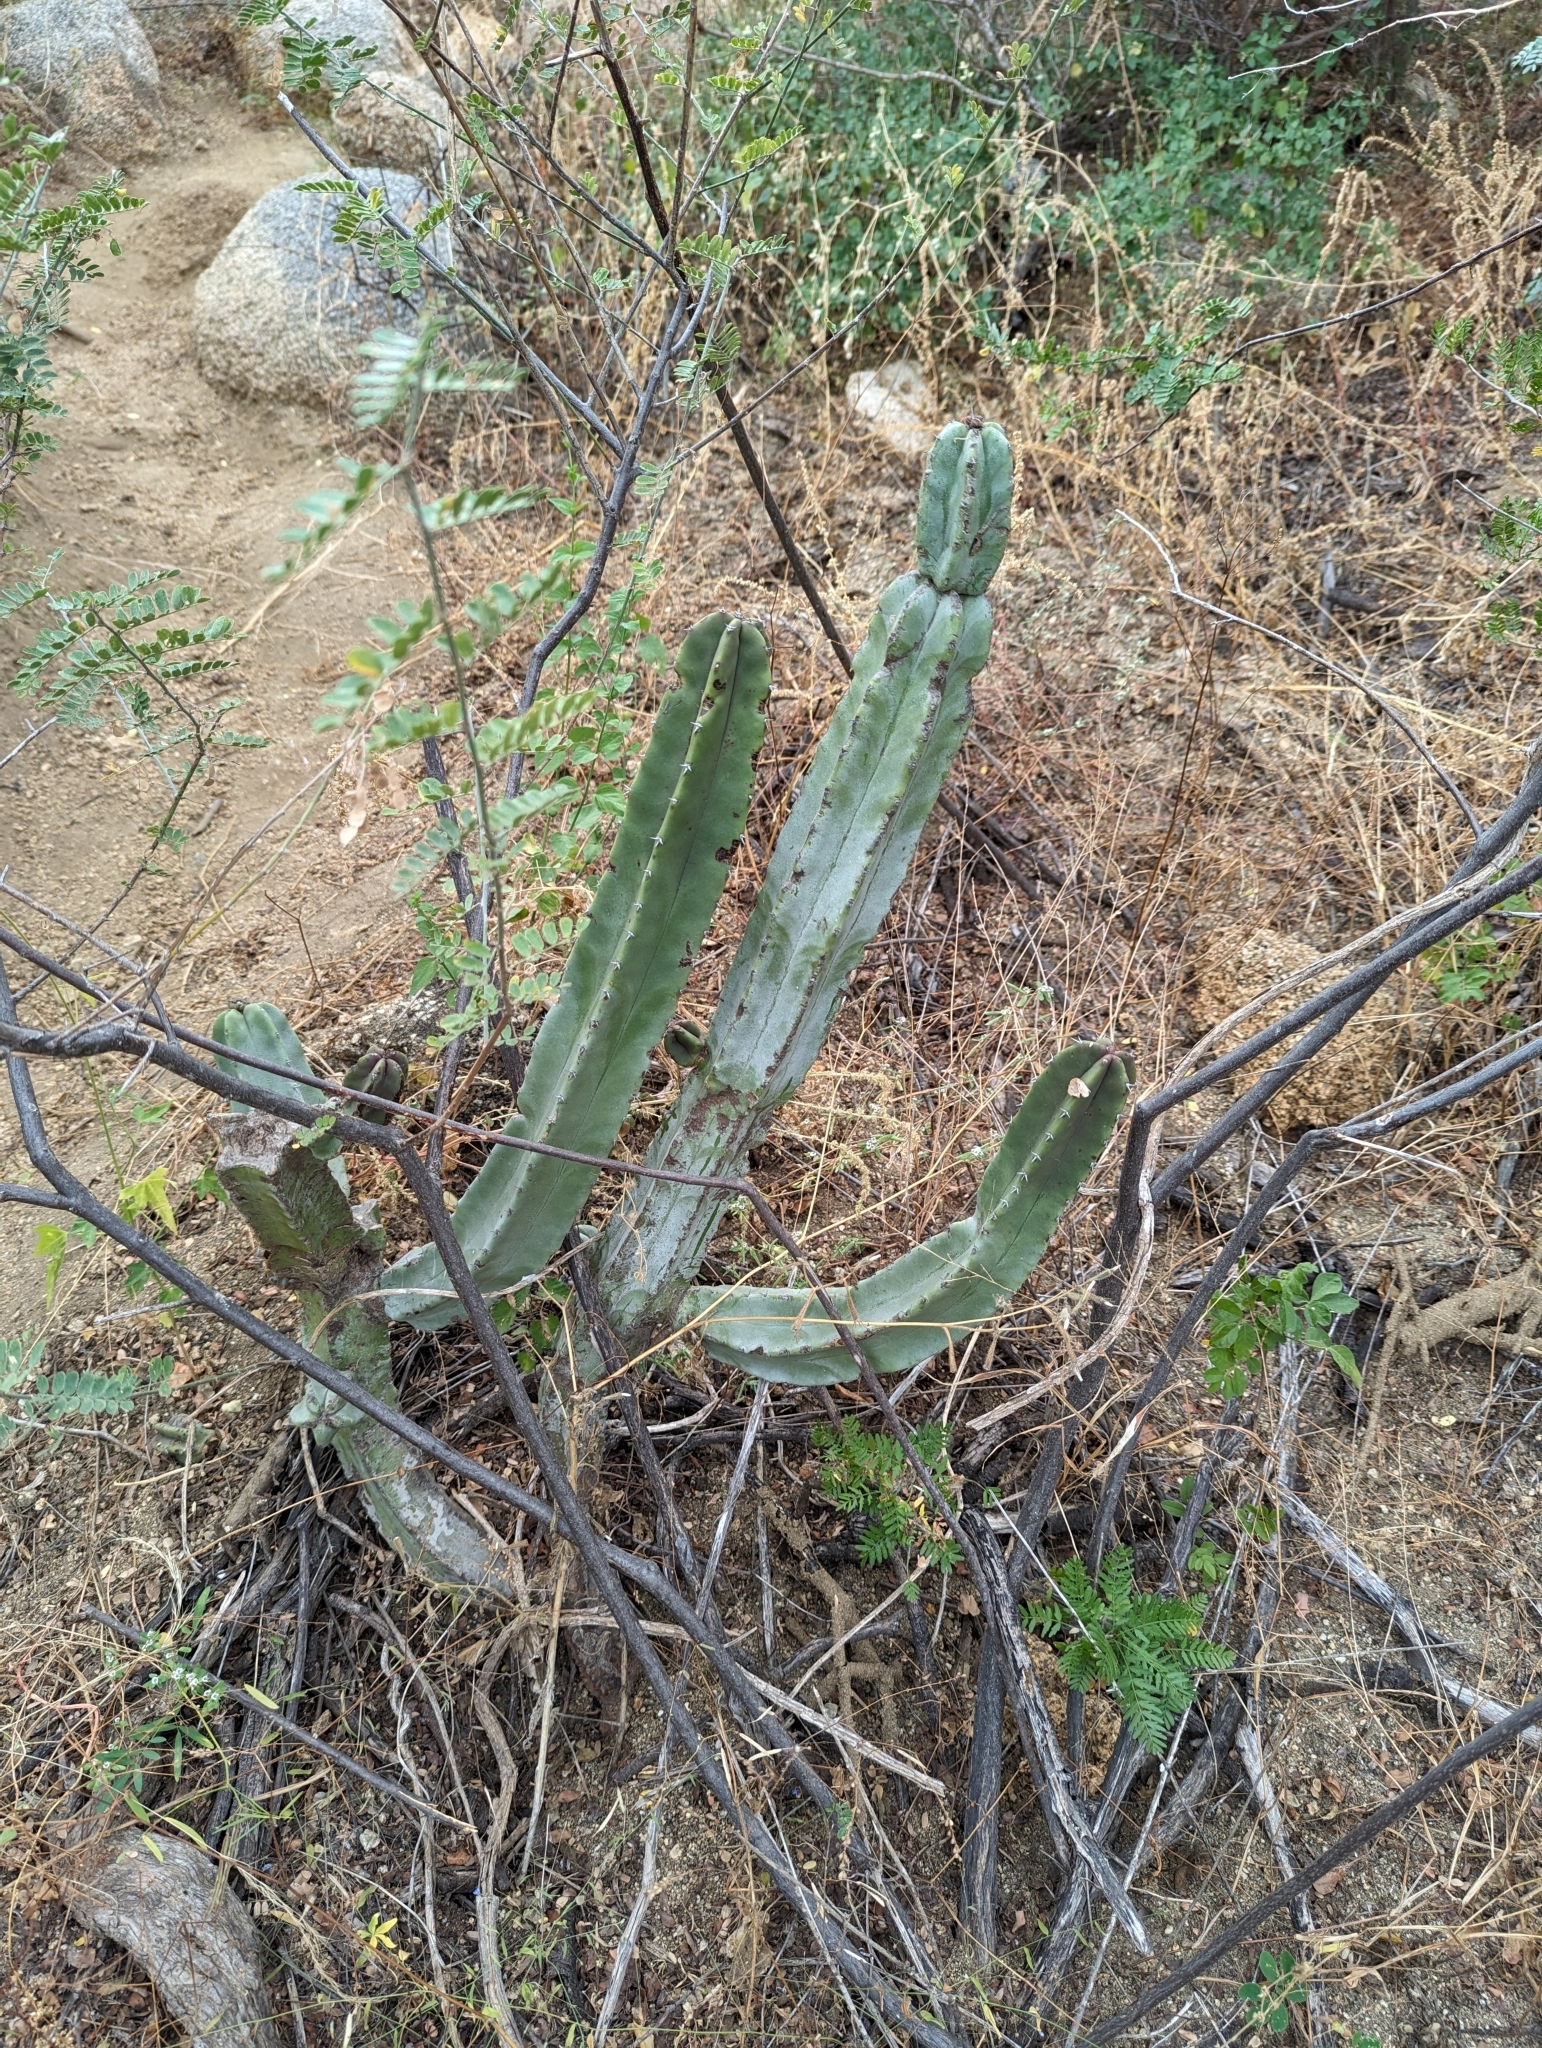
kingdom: Plantae
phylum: Tracheophyta
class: Magnoliopsida
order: Caryophyllales
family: Cactaceae
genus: Pachycereus
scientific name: Pachycereus schottii
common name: Senita cactus
